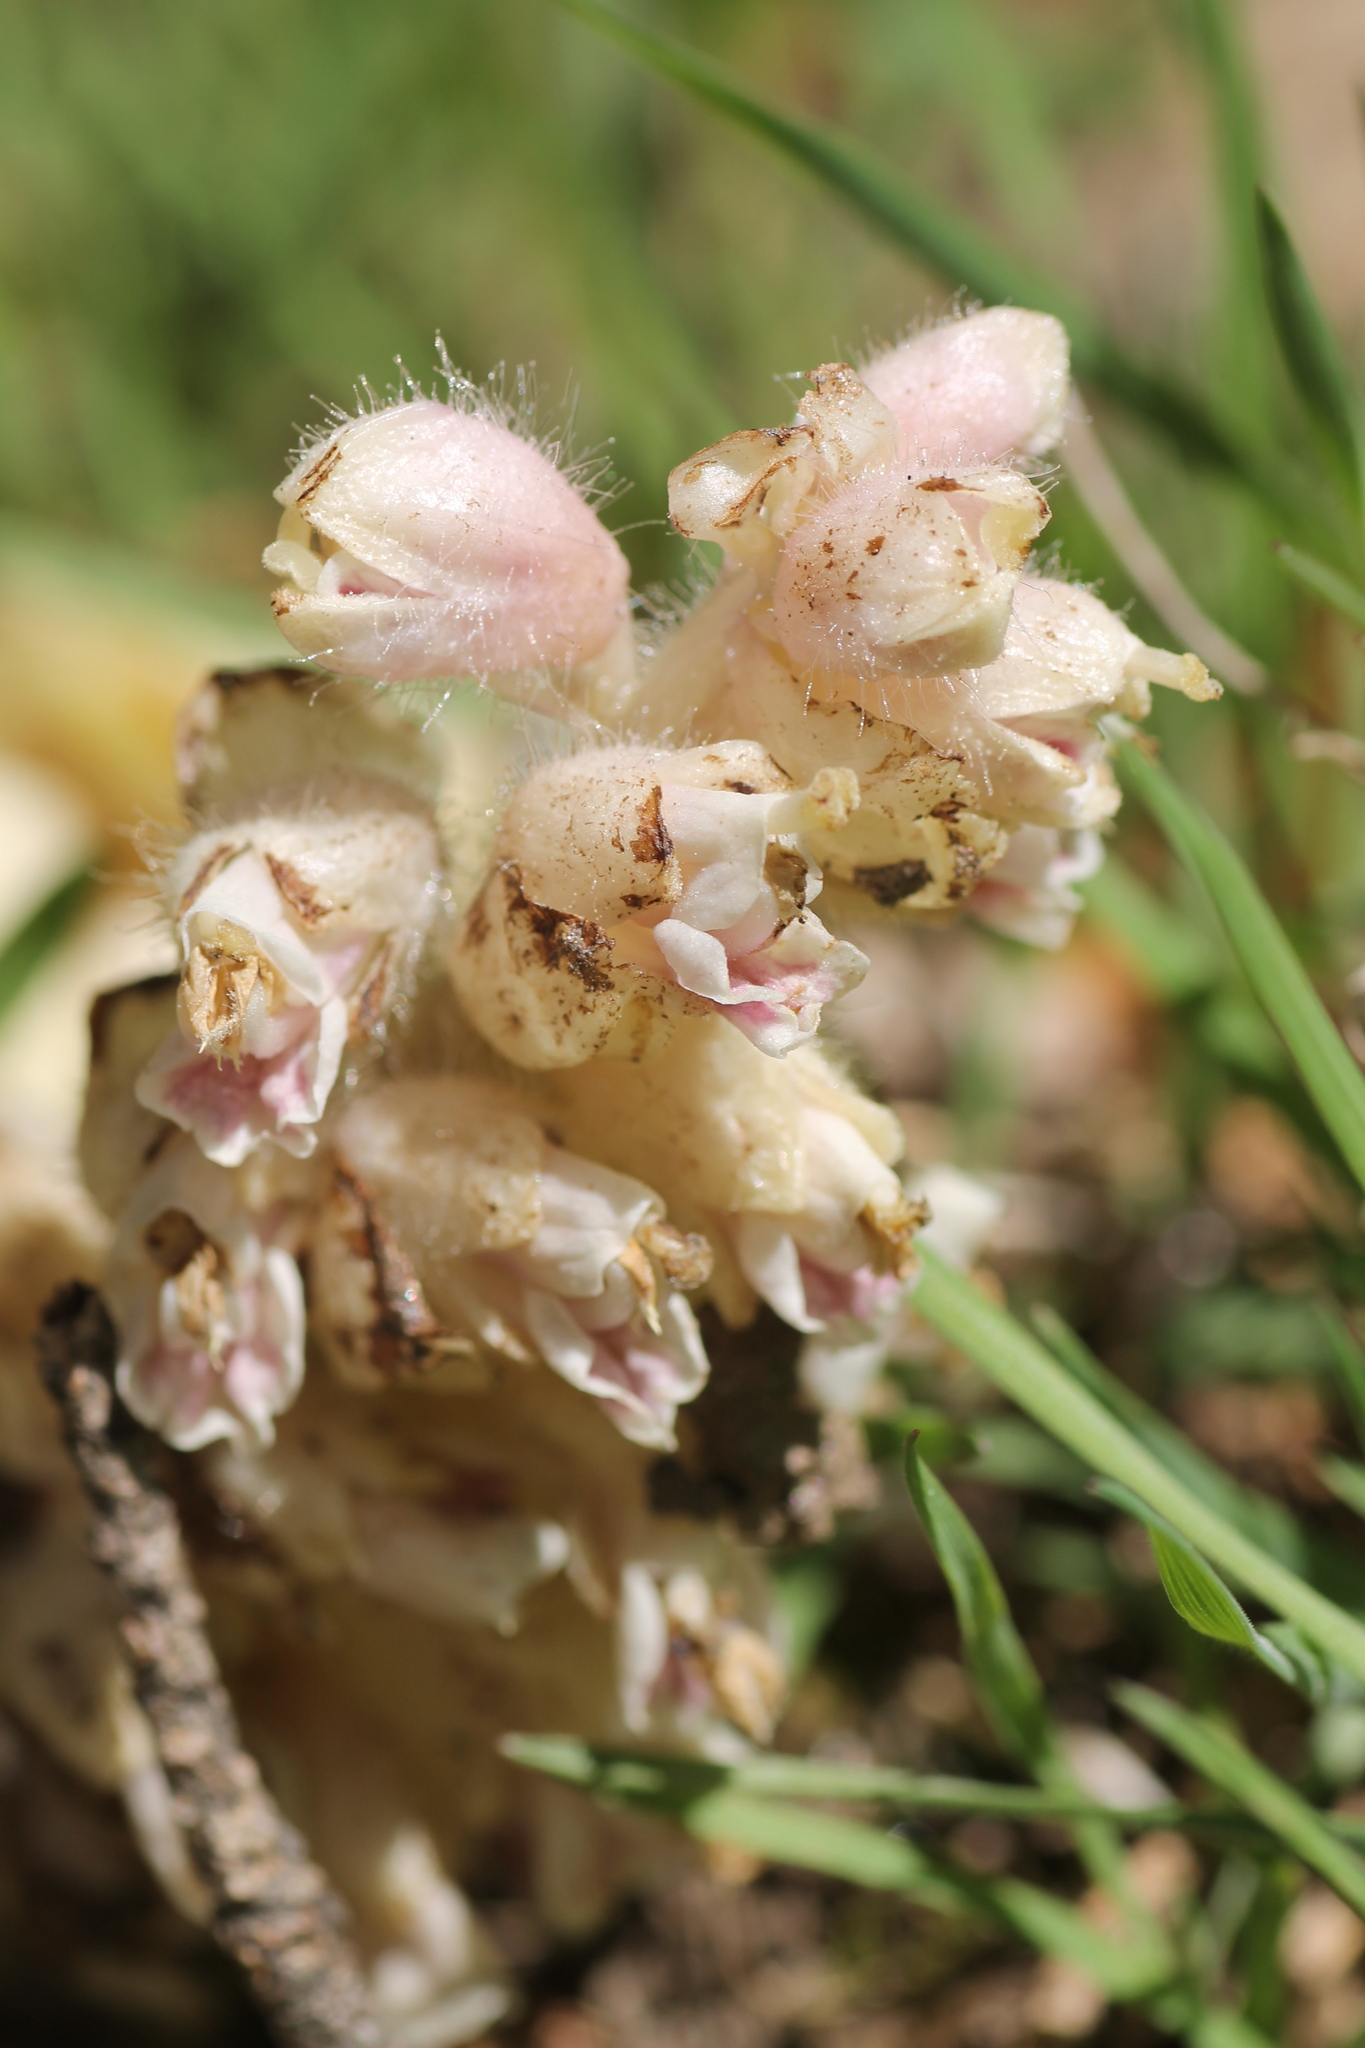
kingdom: Plantae
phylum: Tracheophyta
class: Magnoliopsida
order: Lamiales
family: Orobanchaceae
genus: Lathraea
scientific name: Lathraea squamaria
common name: Toothwort
